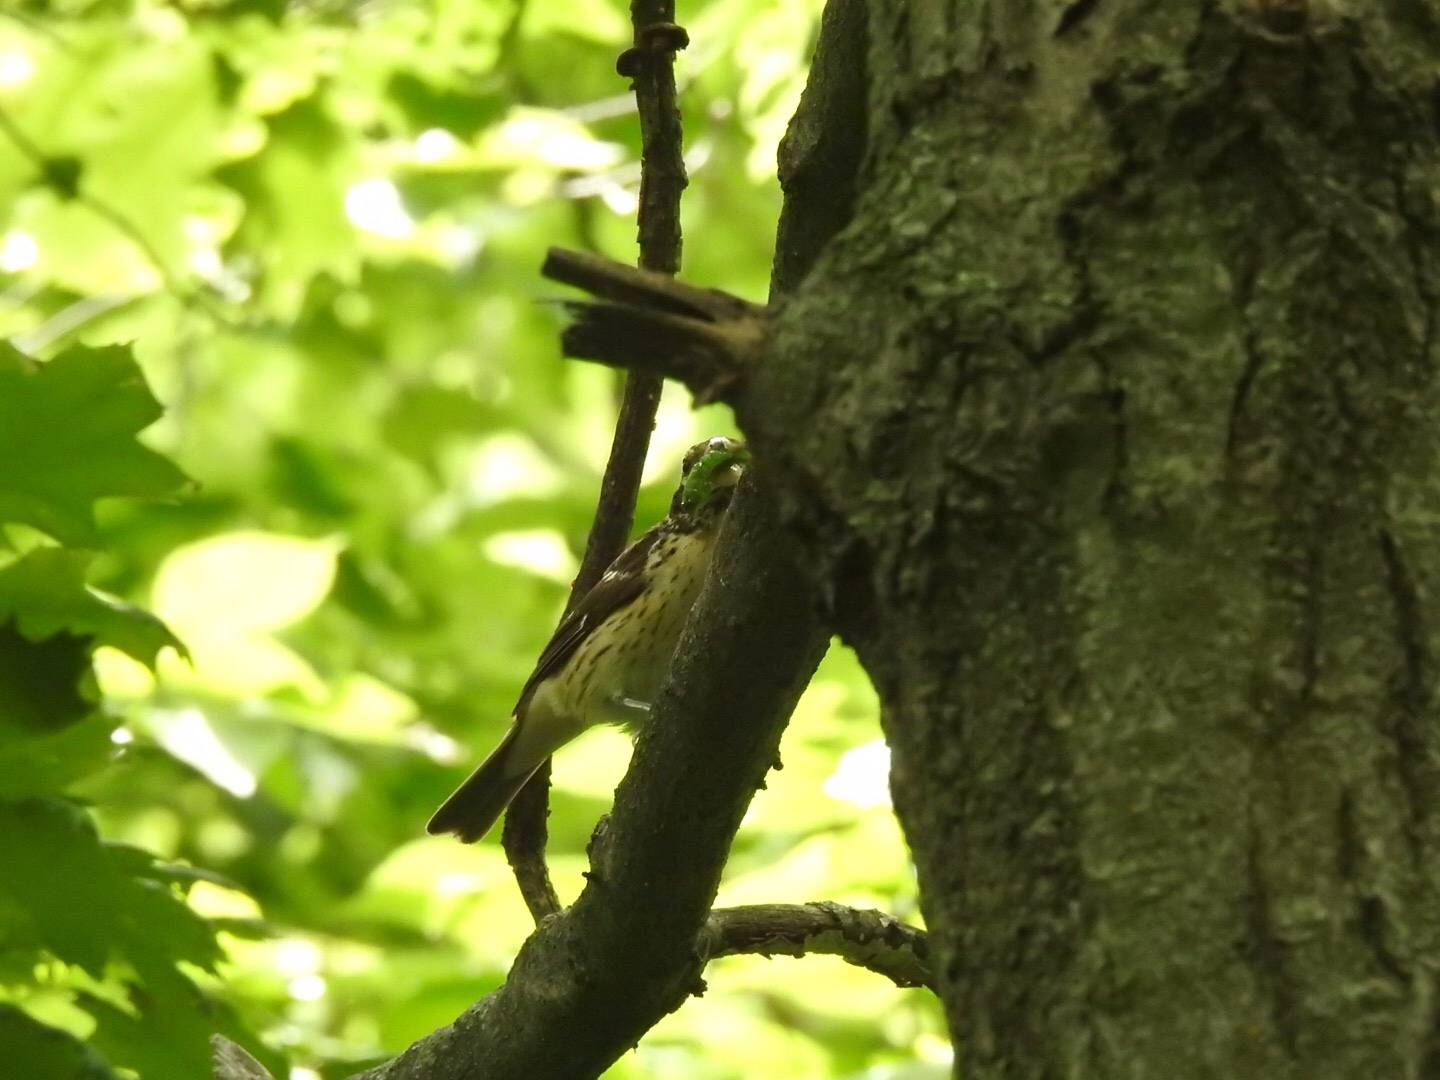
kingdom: Animalia
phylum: Chordata
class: Aves
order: Passeriformes
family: Cardinalidae
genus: Pheucticus
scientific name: Pheucticus ludovicianus
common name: Rose-breasted grosbeak
